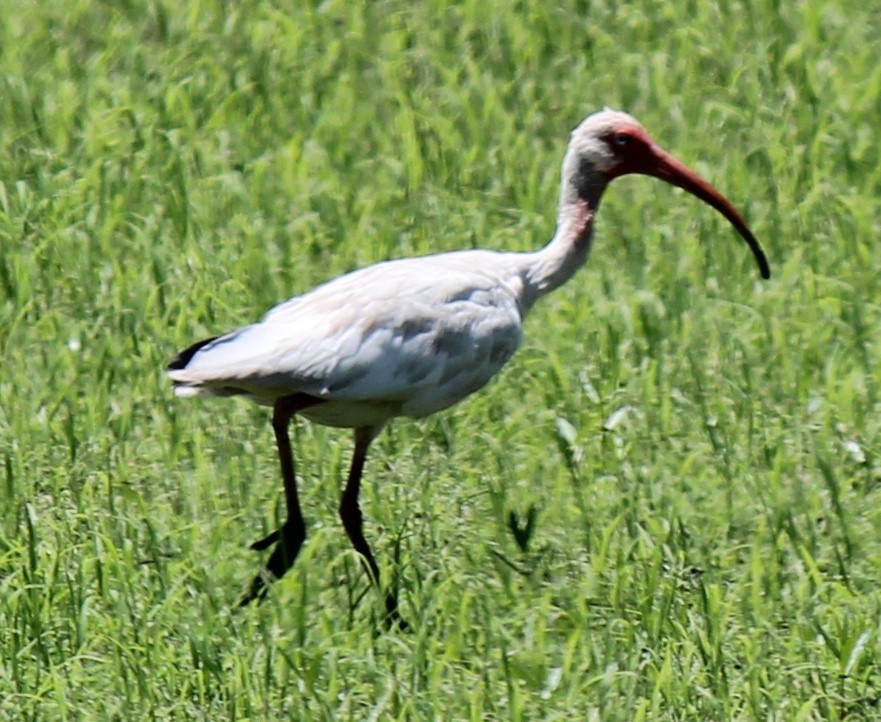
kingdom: Animalia
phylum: Chordata
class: Aves
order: Pelecaniformes
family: Threskiornithidae
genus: Eudocimus
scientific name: Eudocimus albus
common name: White ibis
